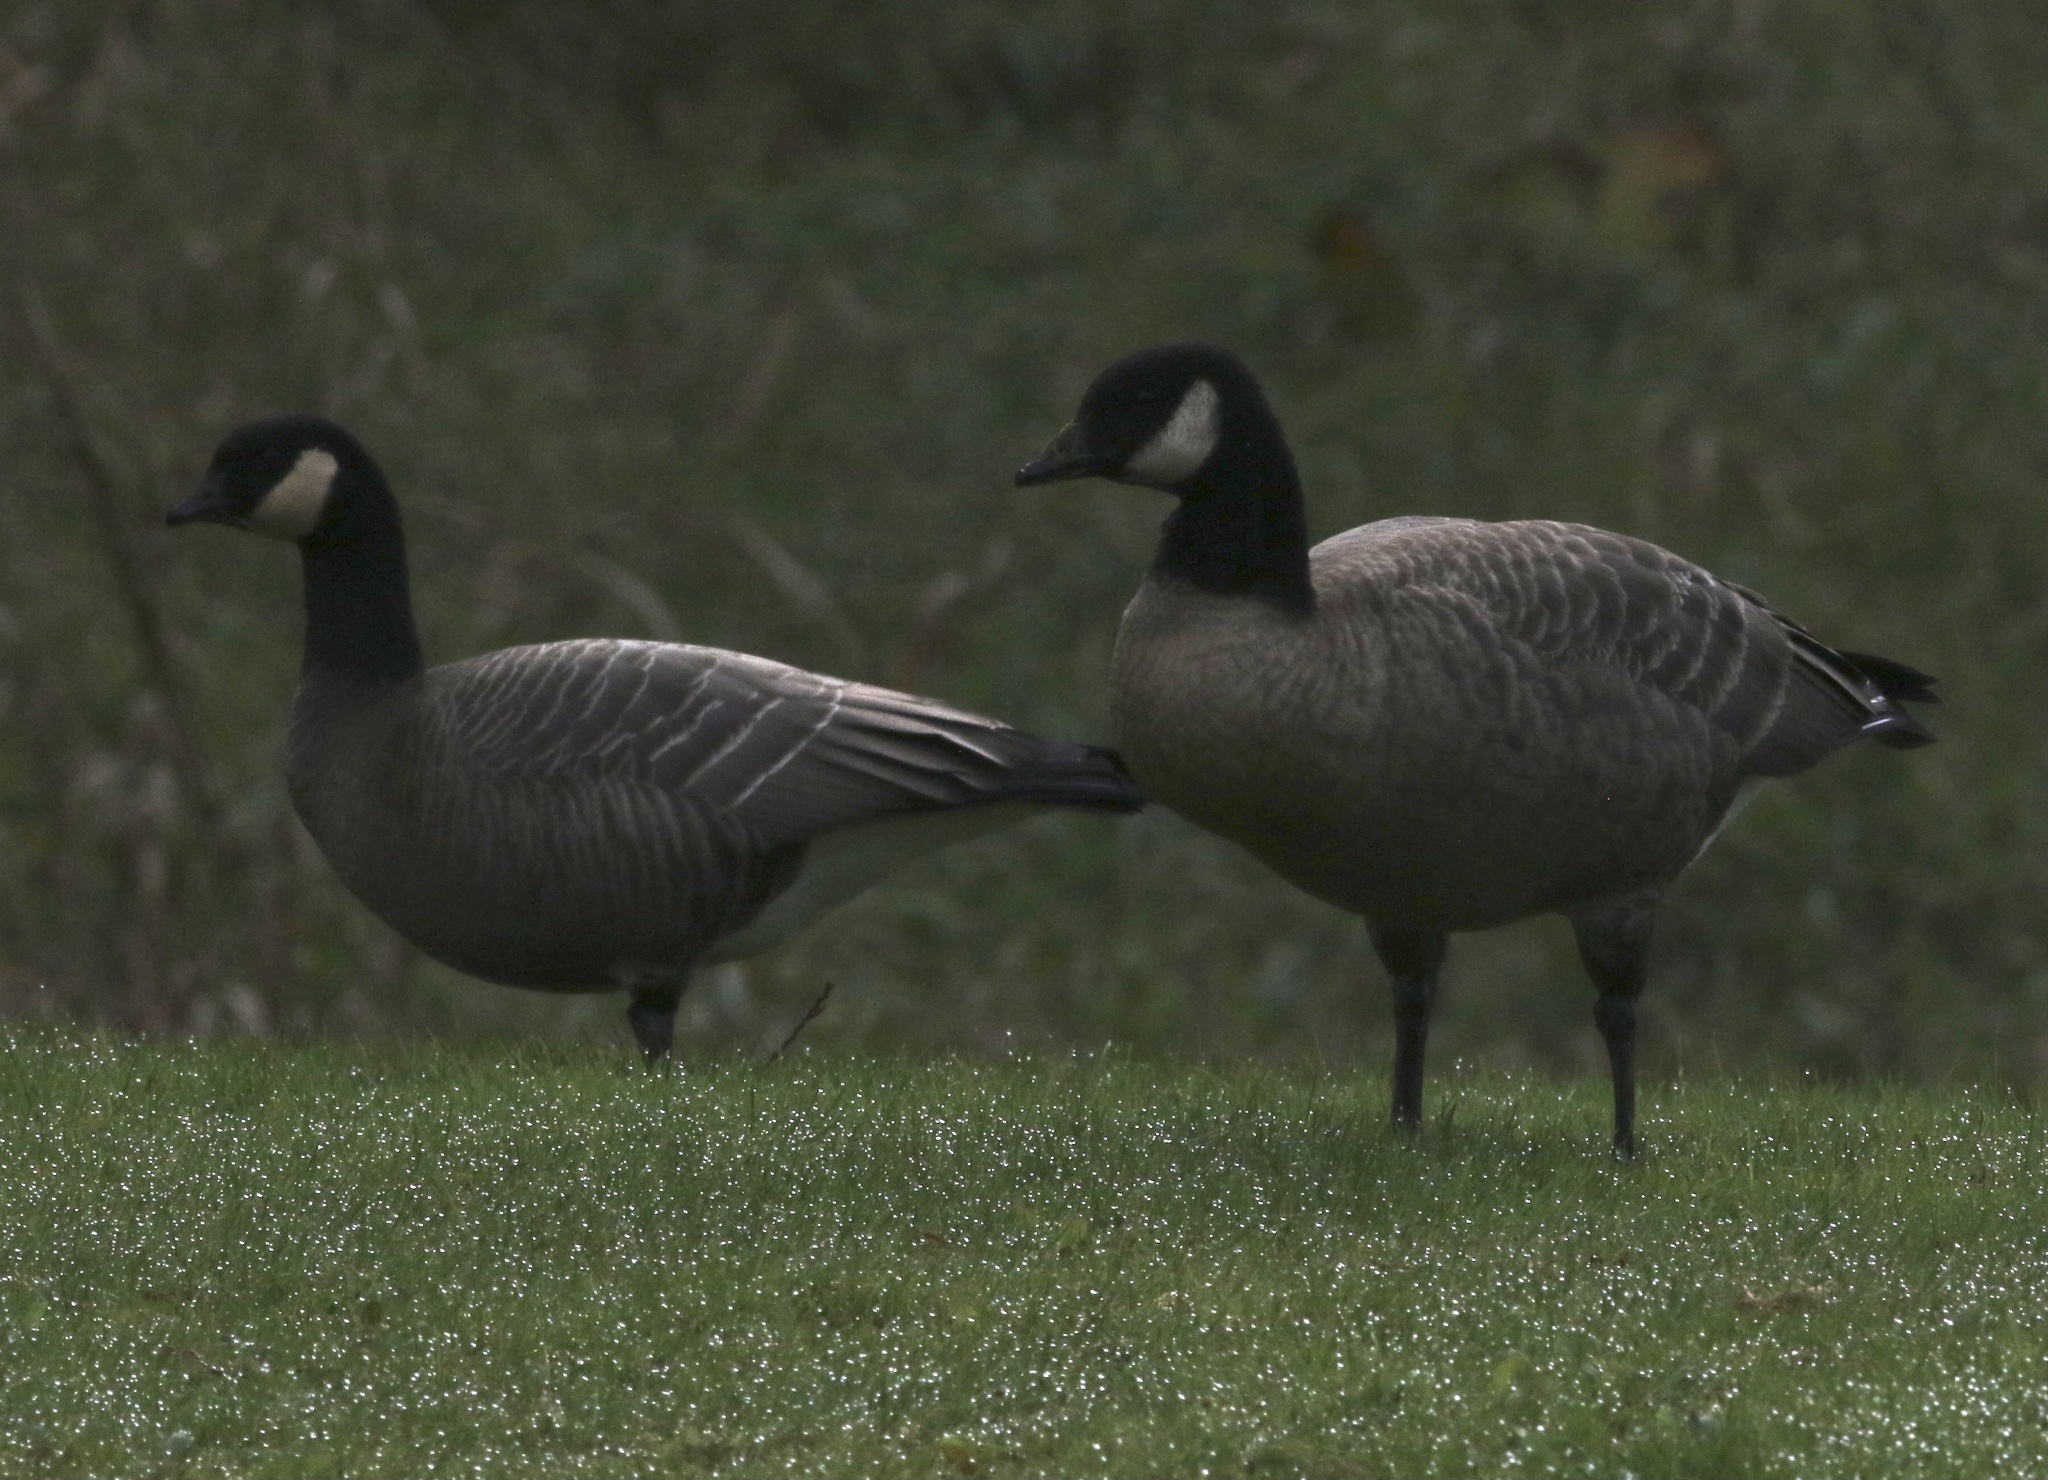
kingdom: Animalia
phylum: Chordata
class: Aves
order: Anseriformes
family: Anatidae
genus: Branta
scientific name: Branta hutchinsii
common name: Cackling goose
